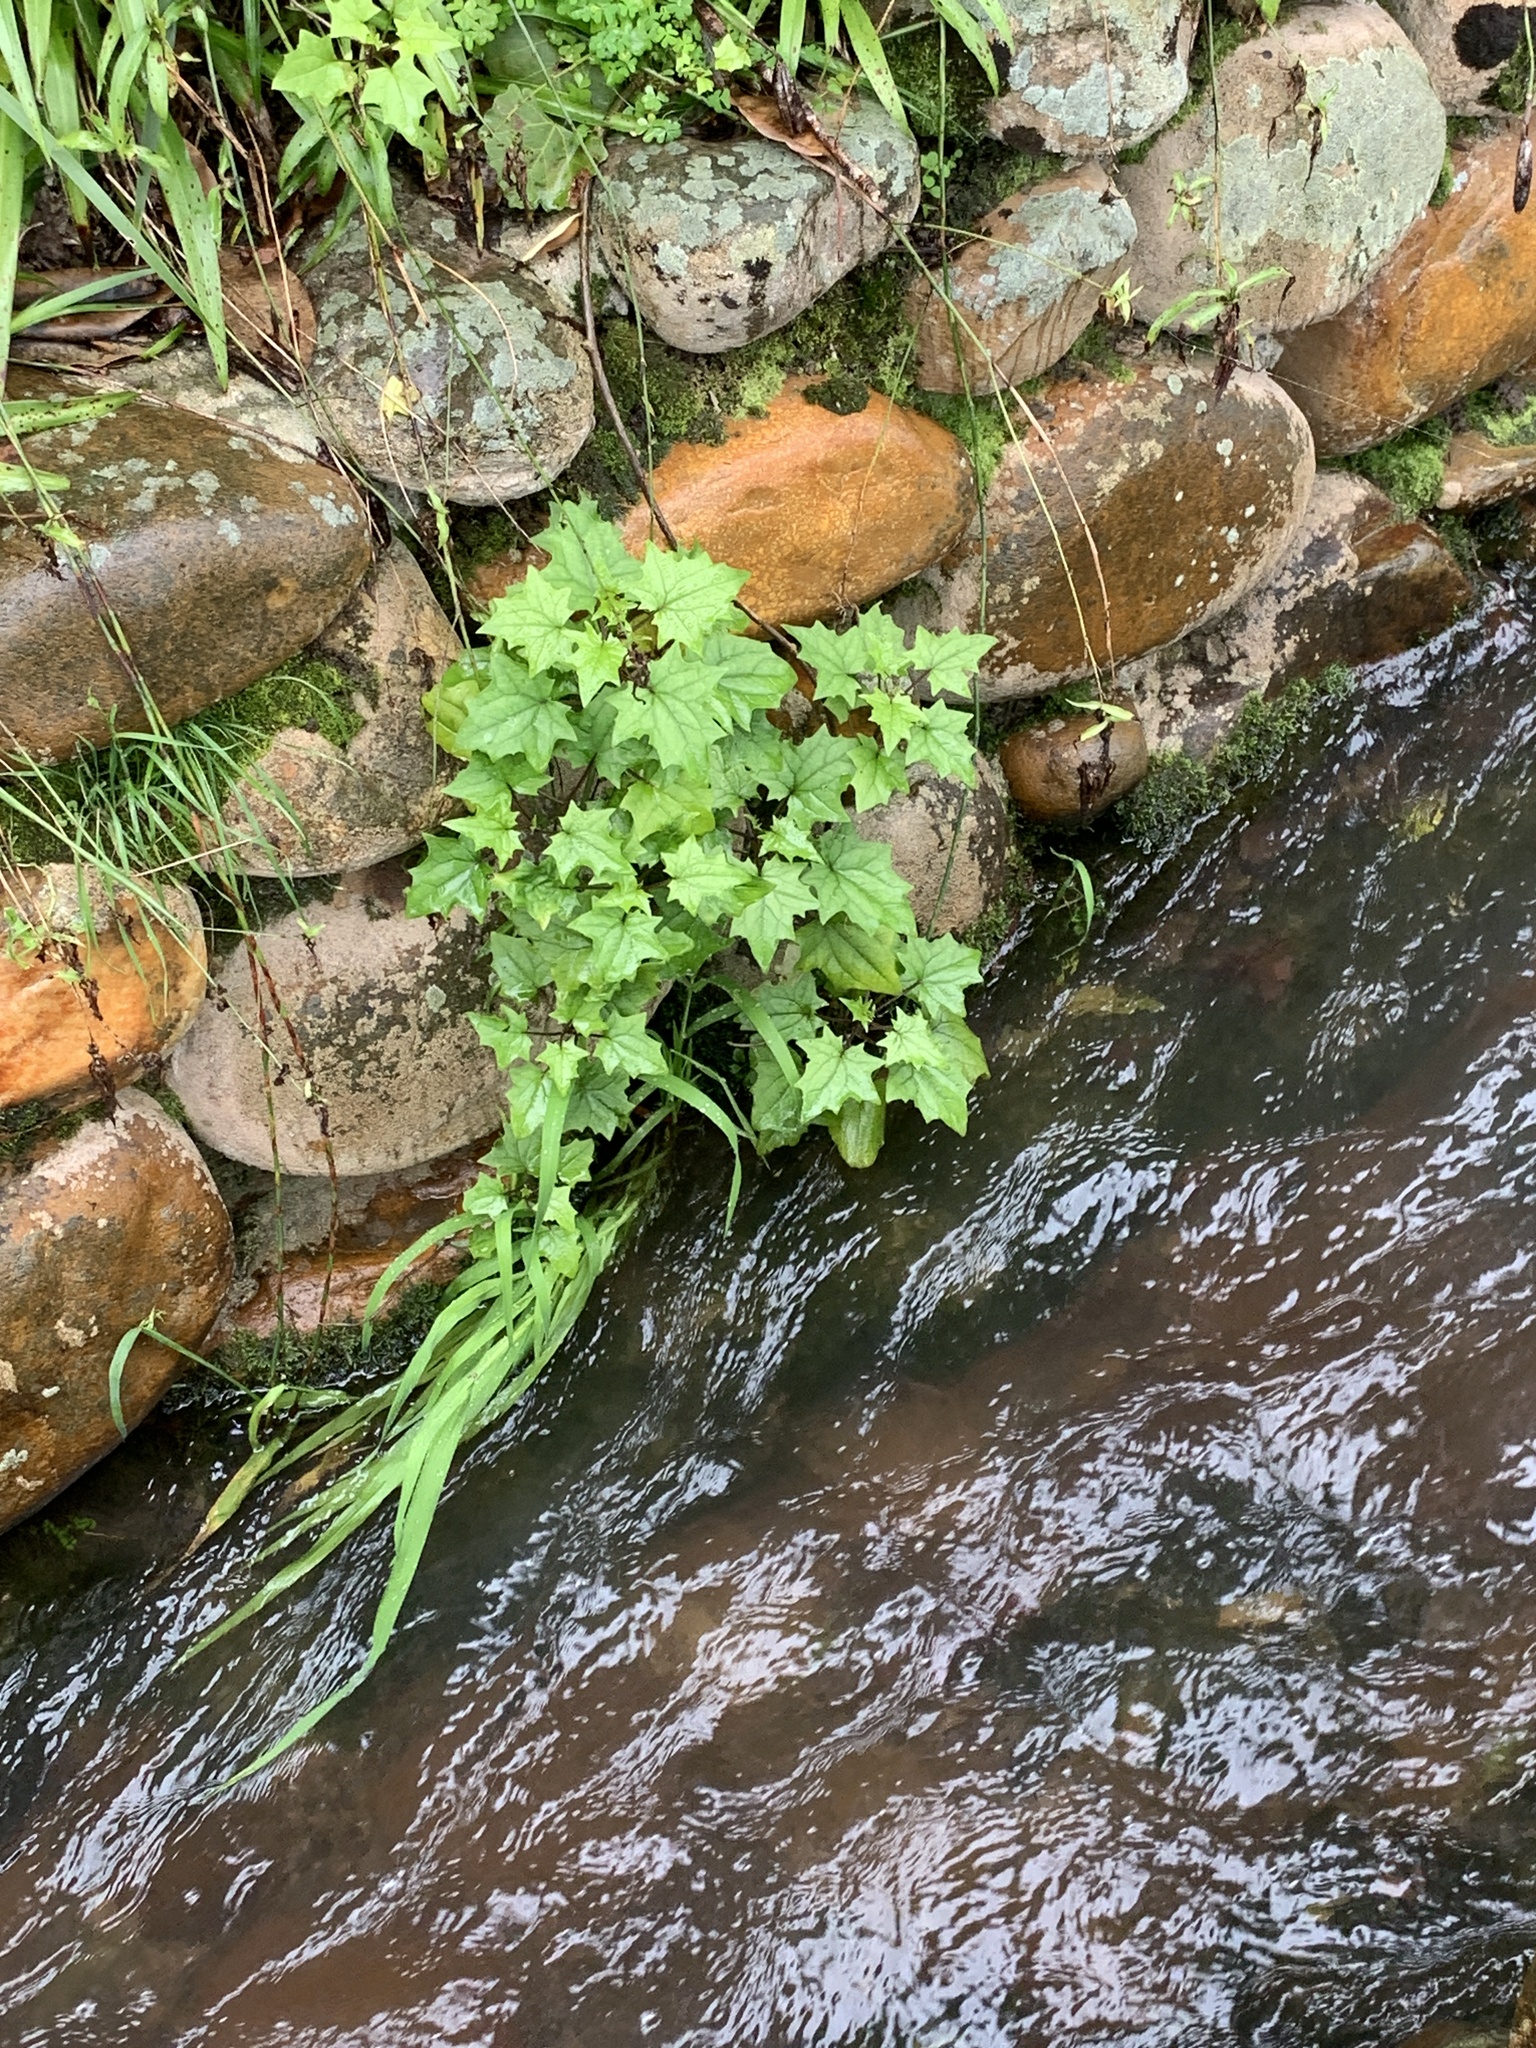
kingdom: Plantae
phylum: Tracheophyta
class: Magnoliopsida
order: Asterales
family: Asteraceae
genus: Senecio
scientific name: Senecio tamoides
